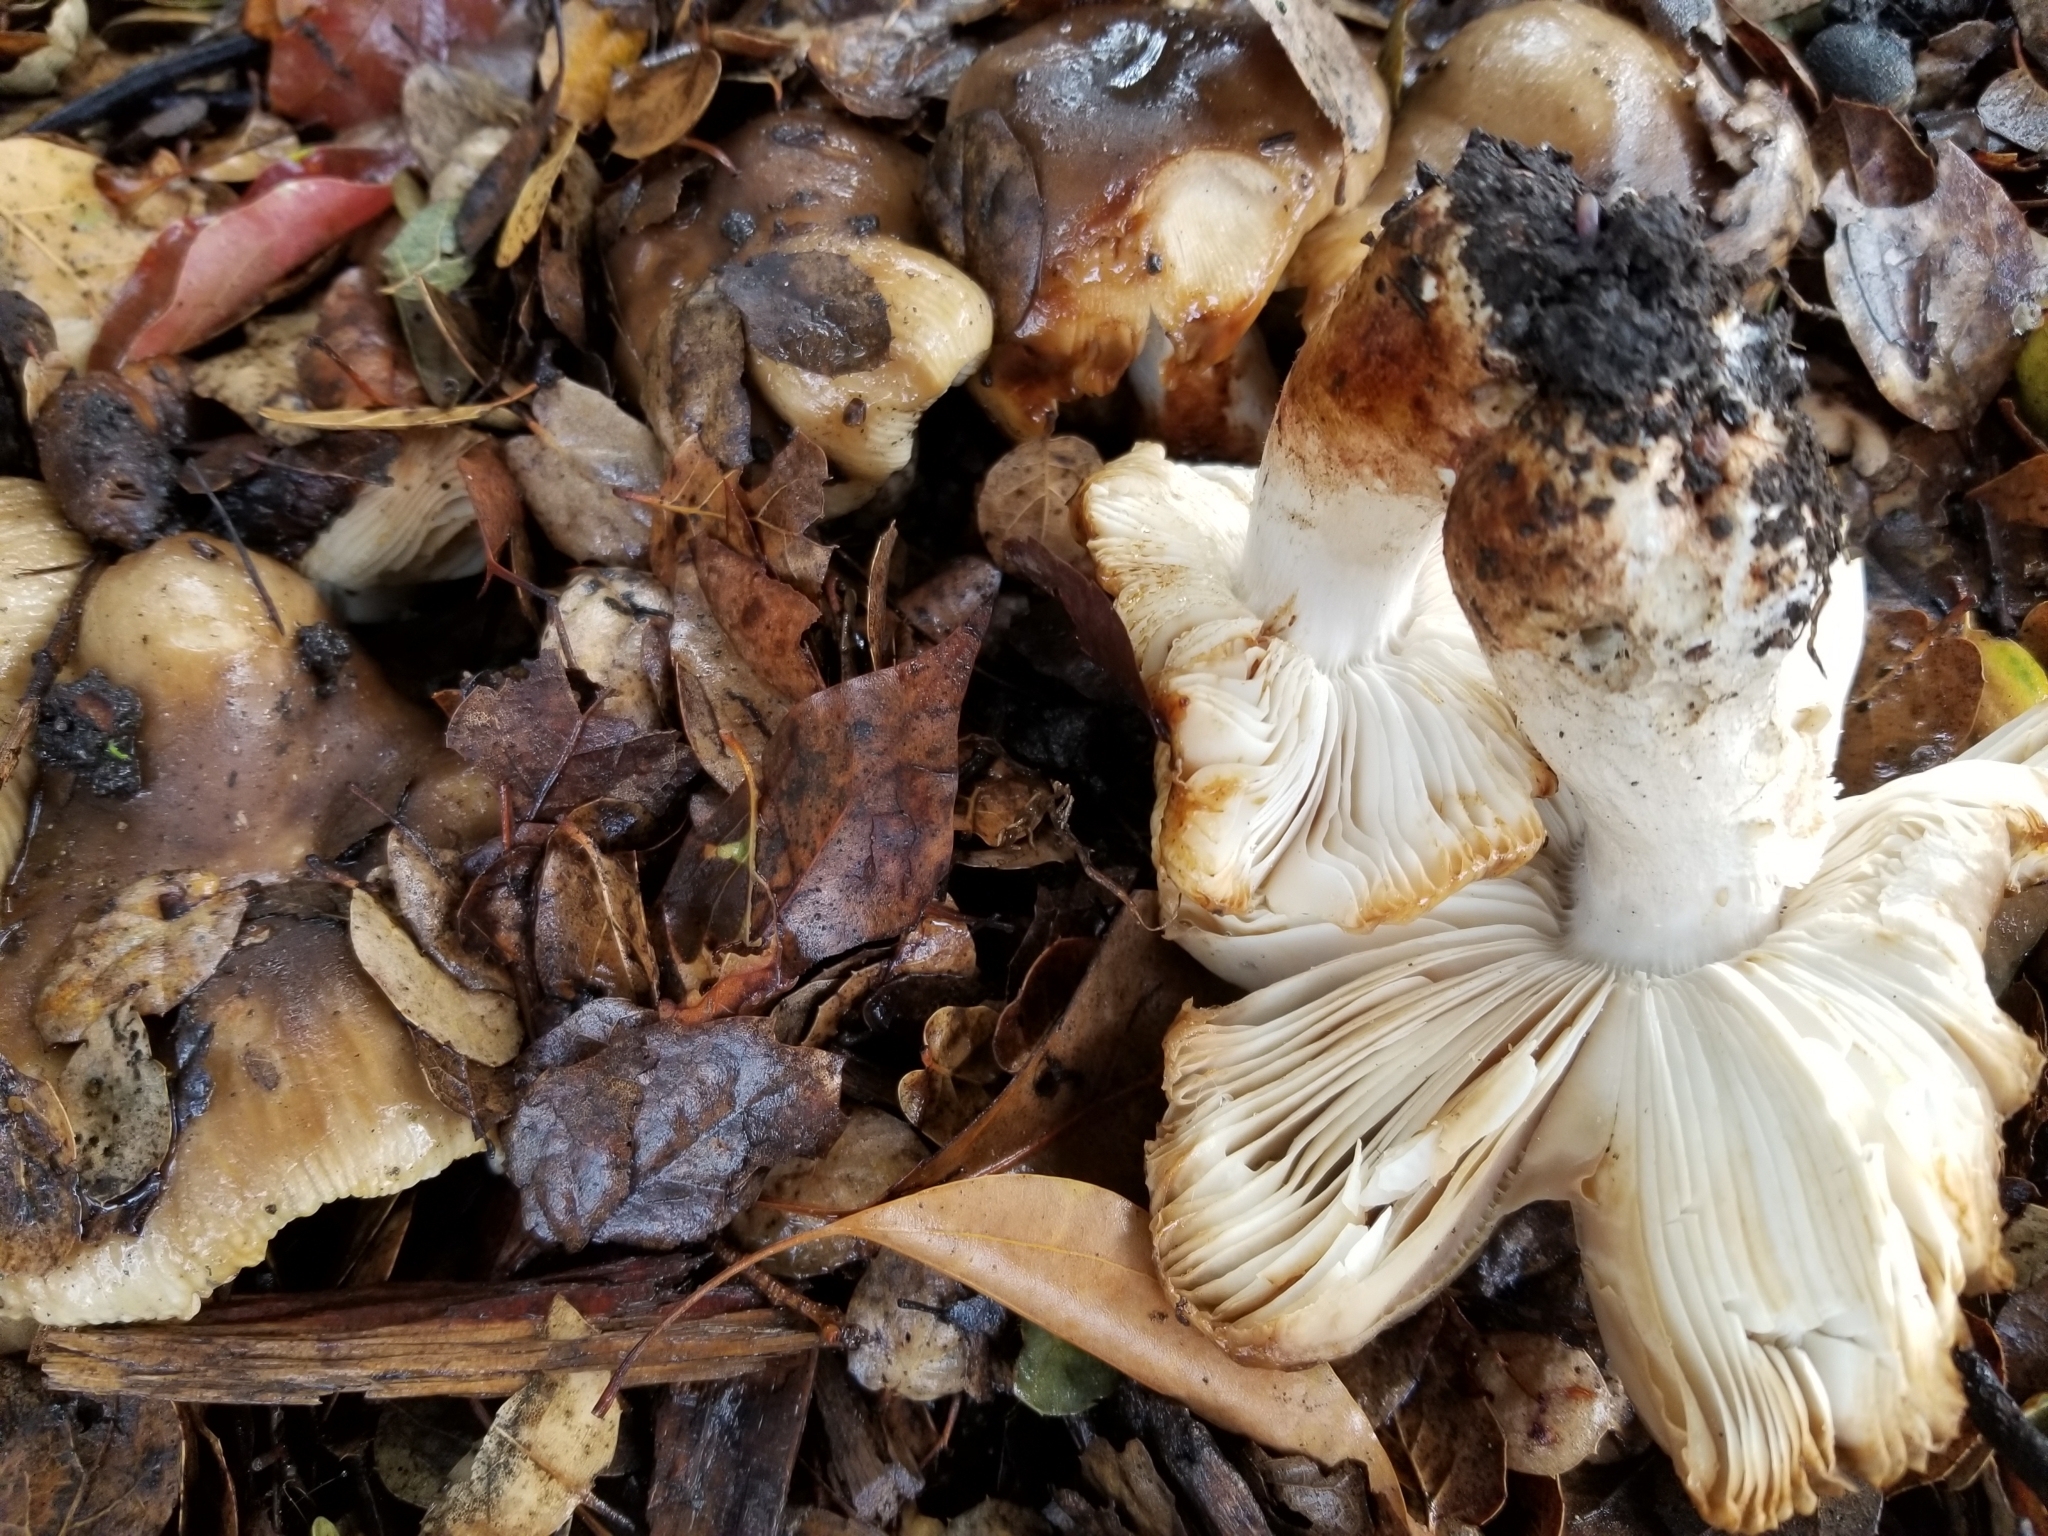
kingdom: Fungi
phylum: Basidiomycota
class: Agaricomycetes
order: Agaricales
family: Tricholomataceae
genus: Melanoleuca
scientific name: Melanoleuca dryophila
